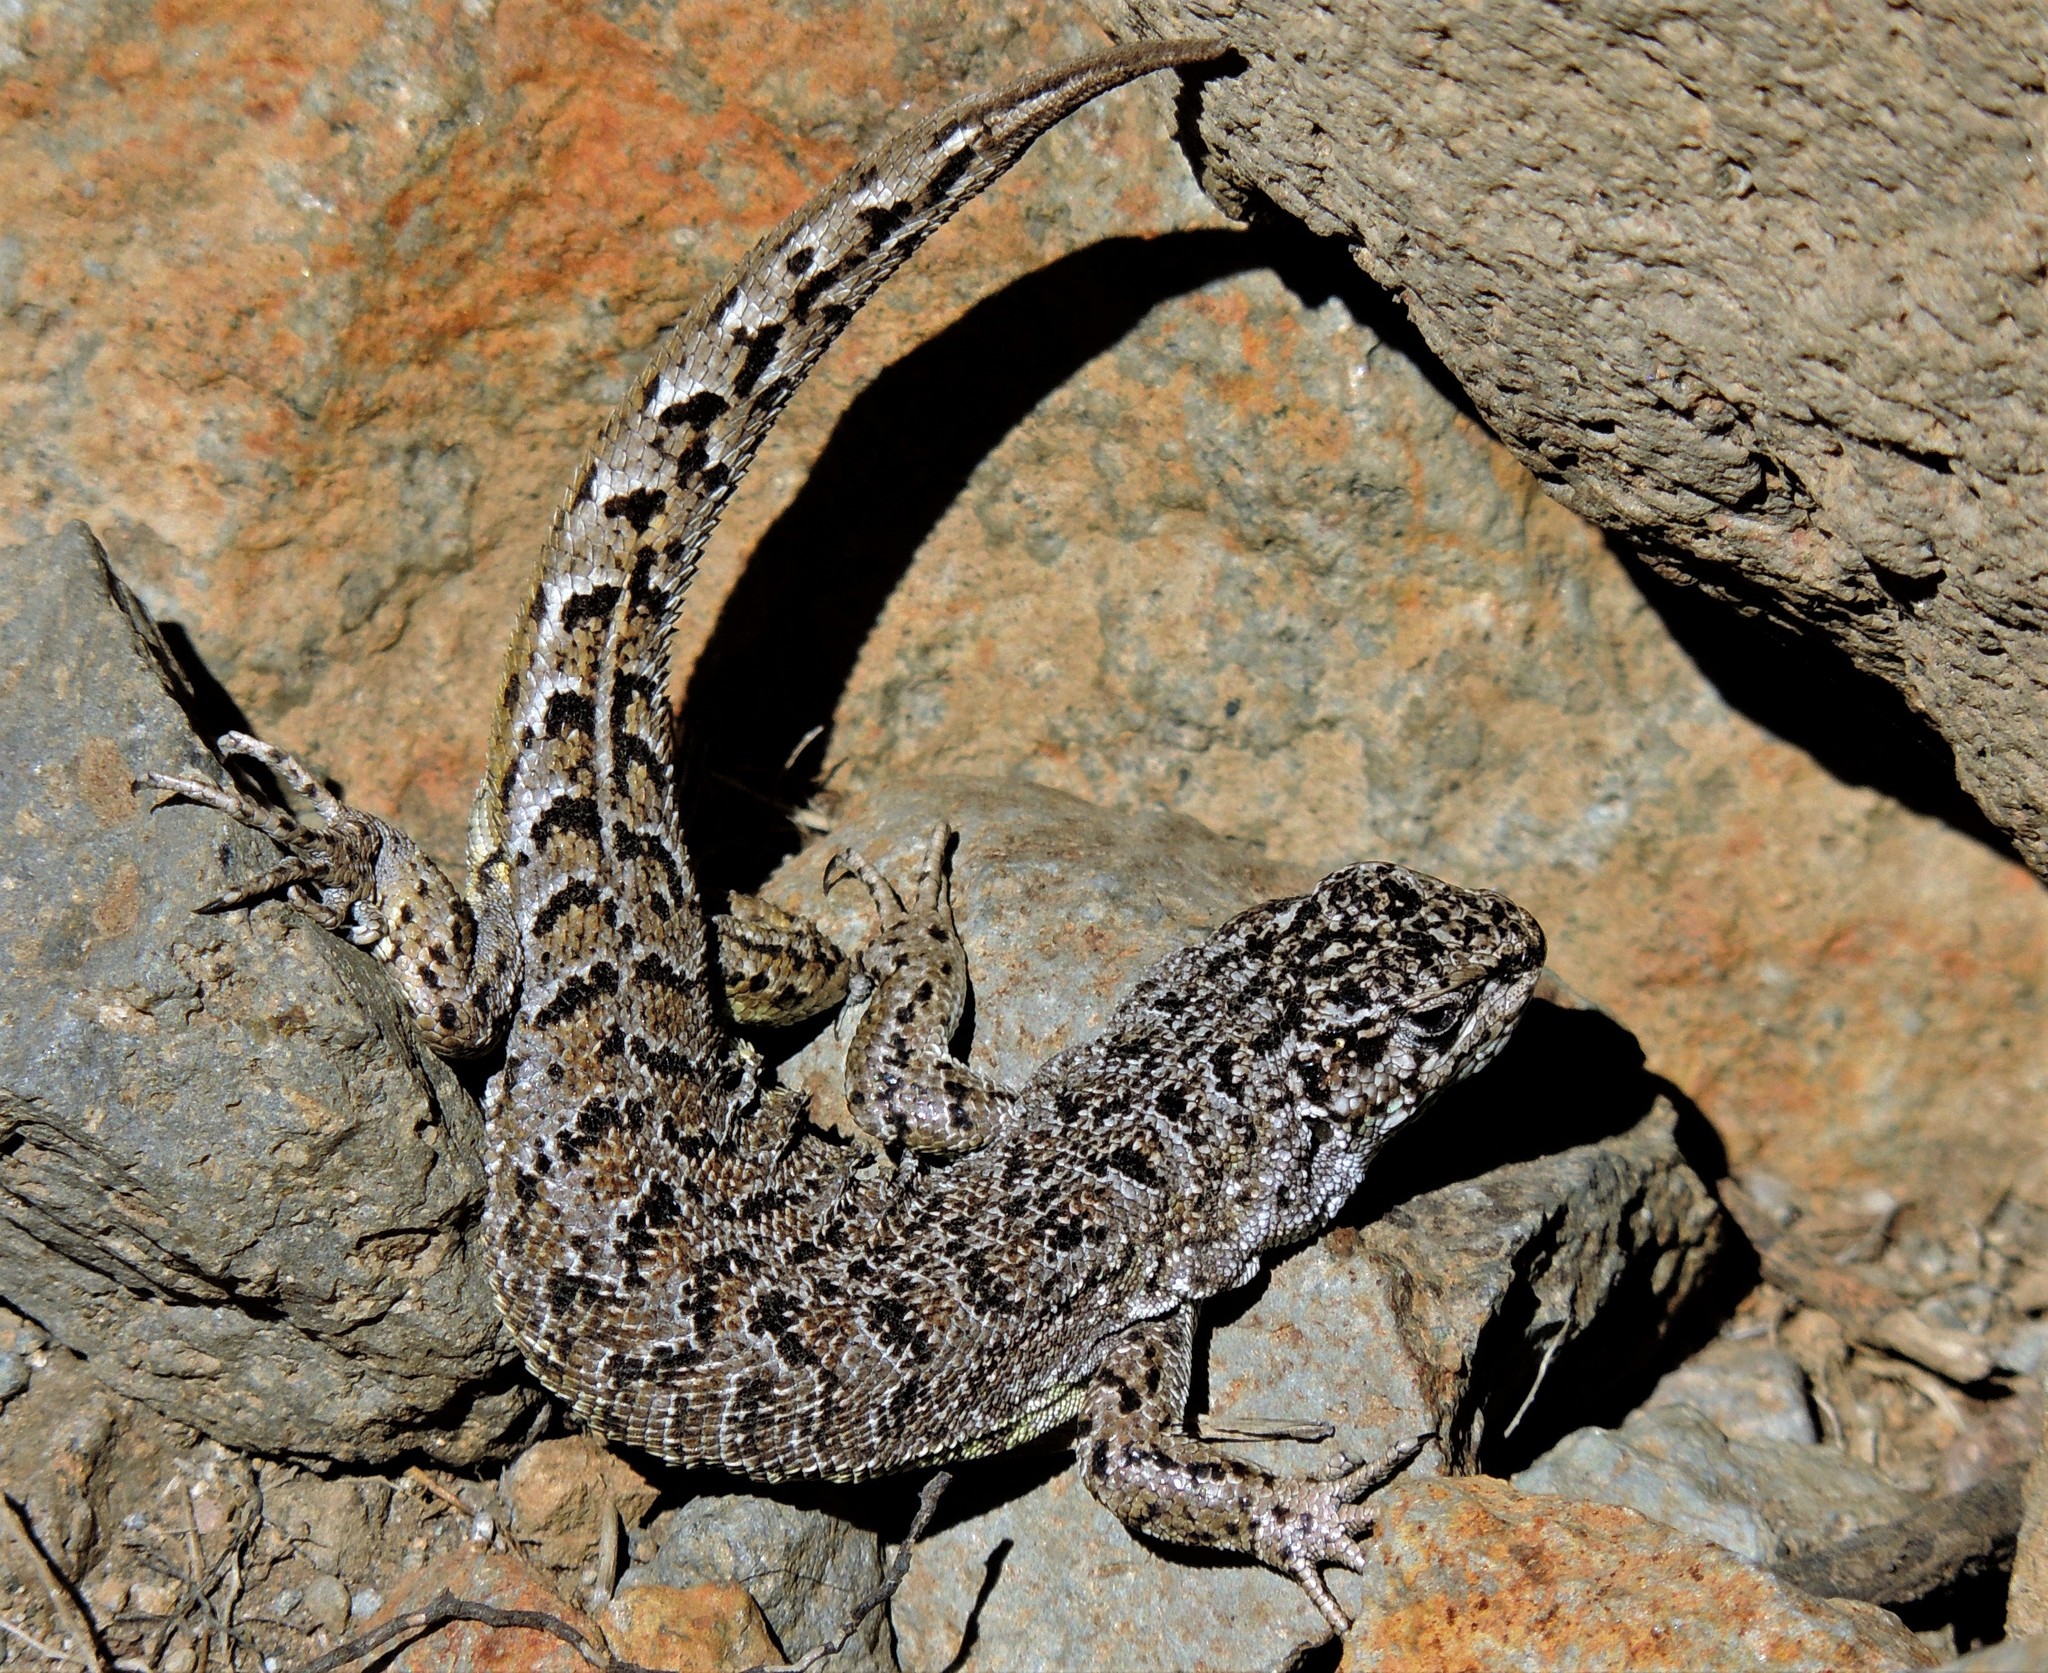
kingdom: Animalia
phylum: Chordata
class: Squamata
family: Liolaemidae
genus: Liolaemus
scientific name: Liolaemus coeruleus
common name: Blue tree iguana
